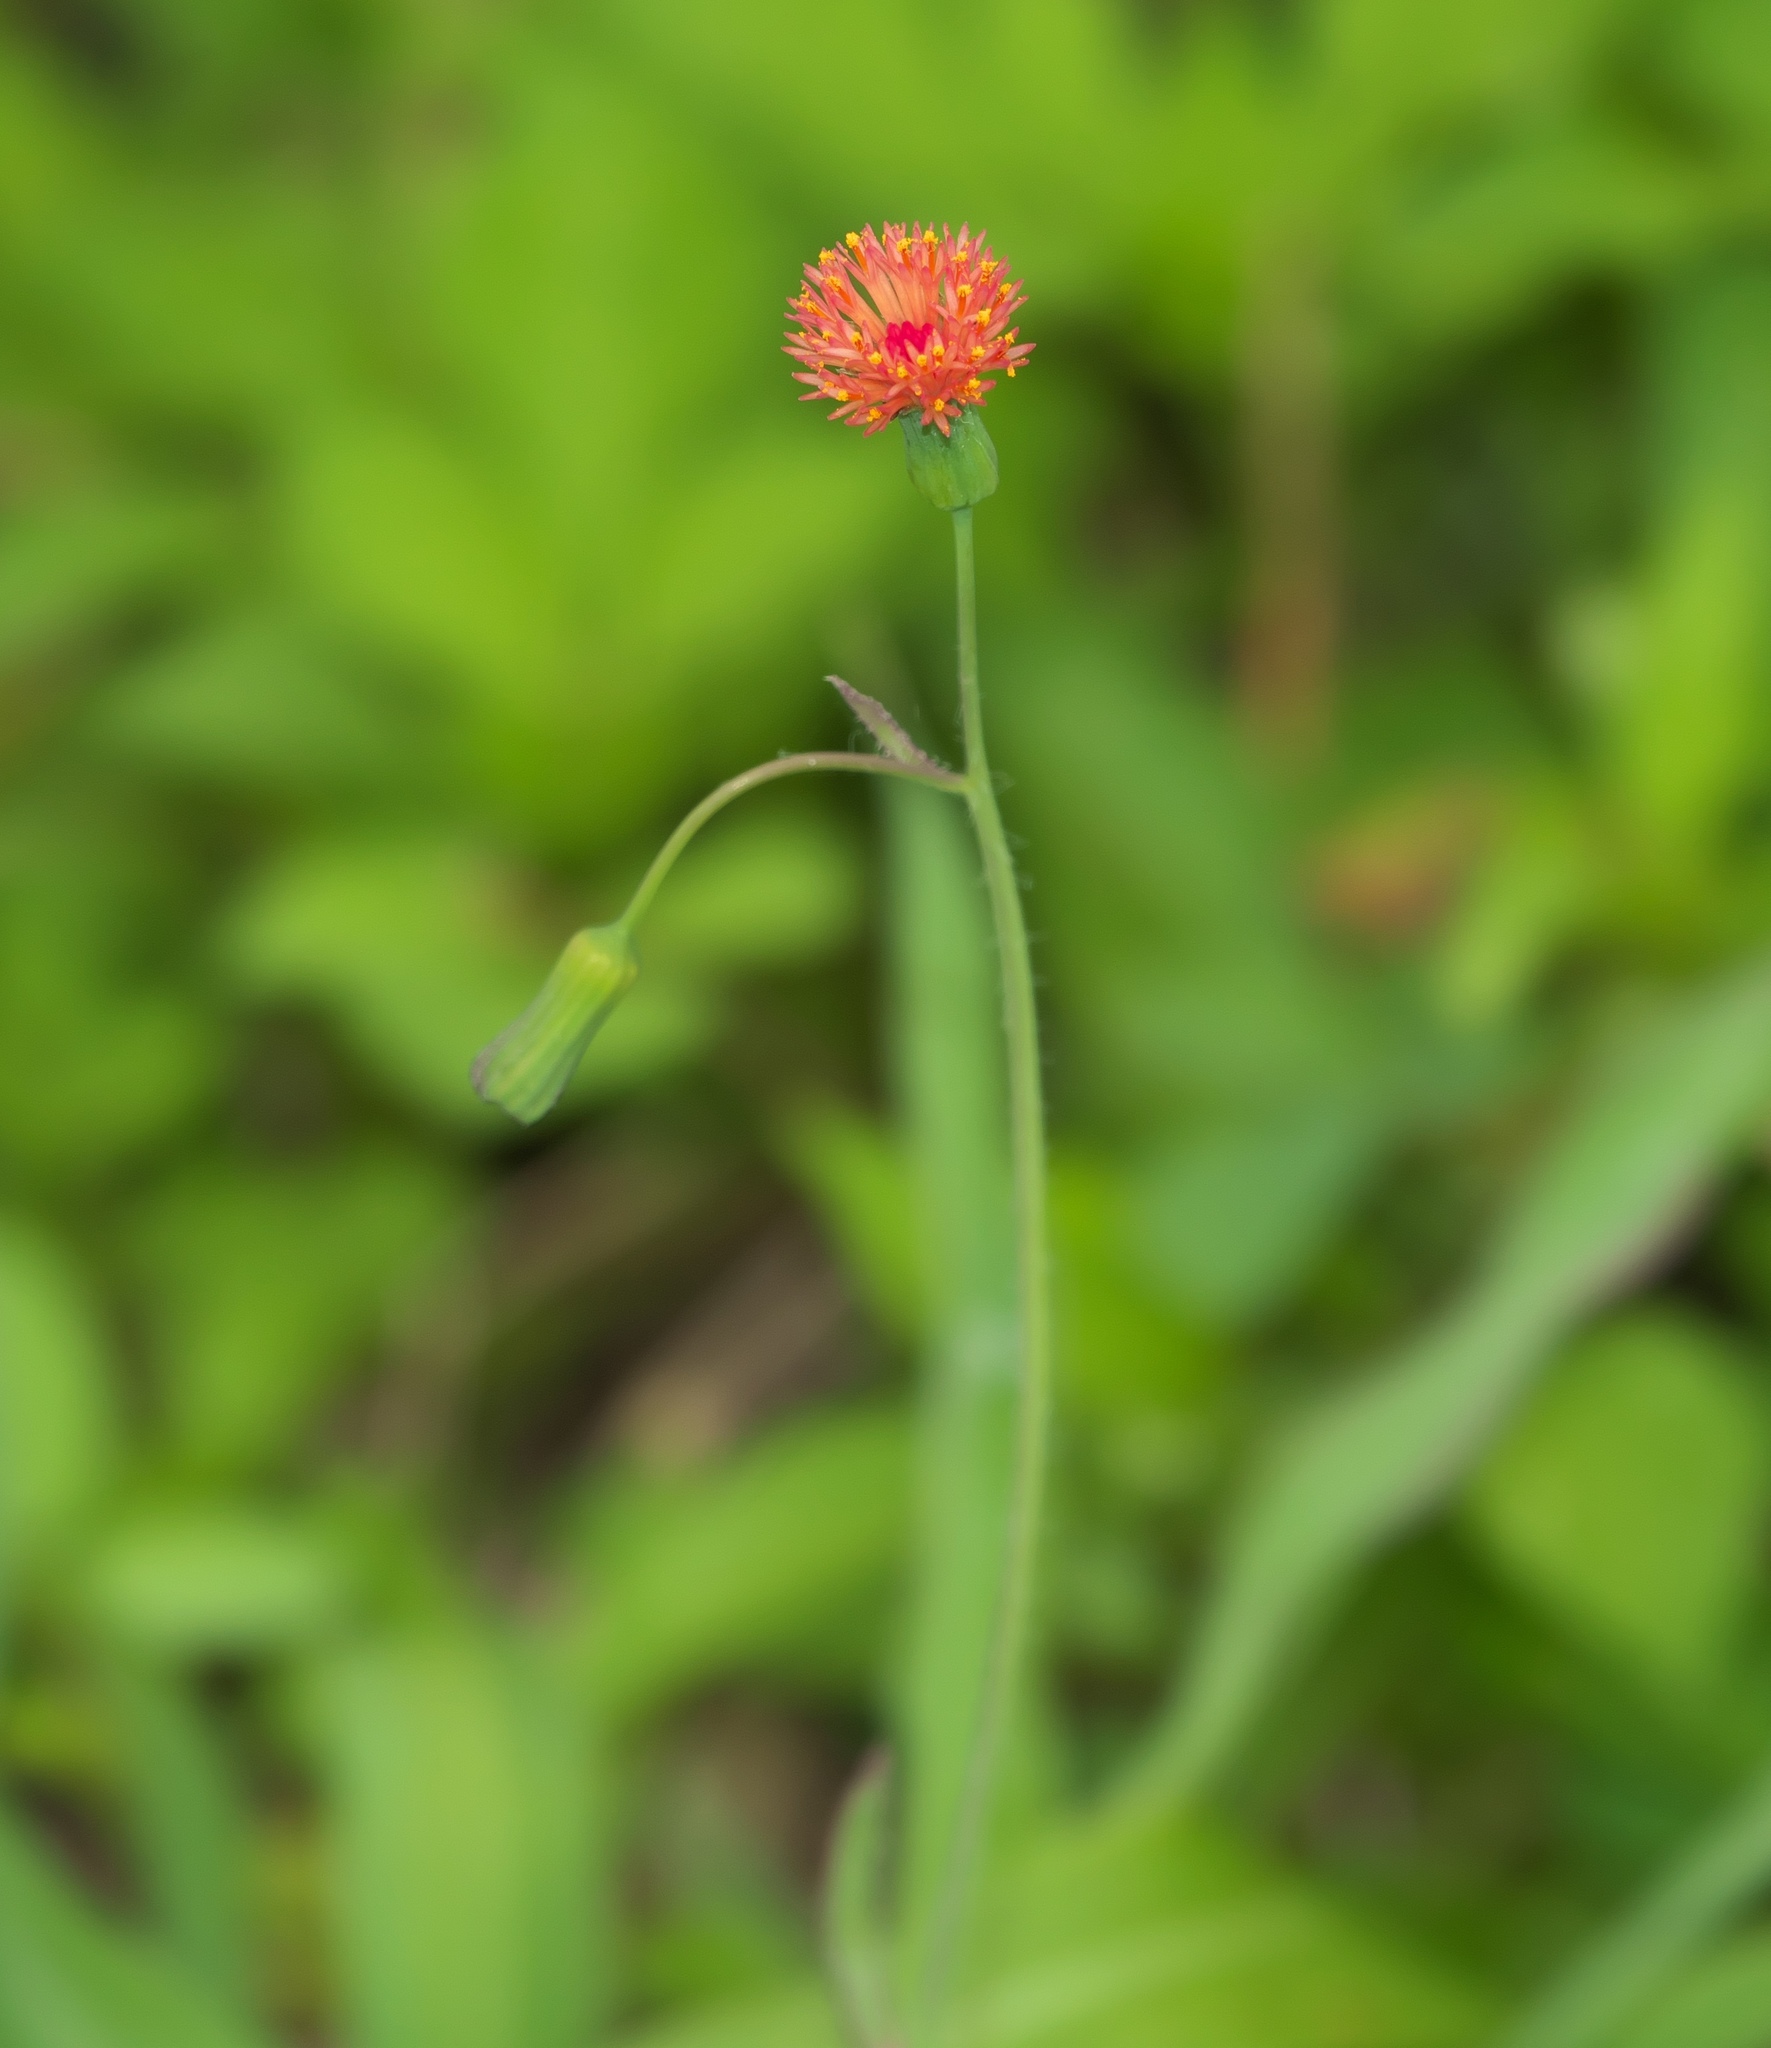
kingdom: Plantae
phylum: Tracheophyta
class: Magnoliopsida
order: Asterales
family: Asteraceae
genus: Emilia
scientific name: Emilia fosbergii
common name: Florida tasselflower
